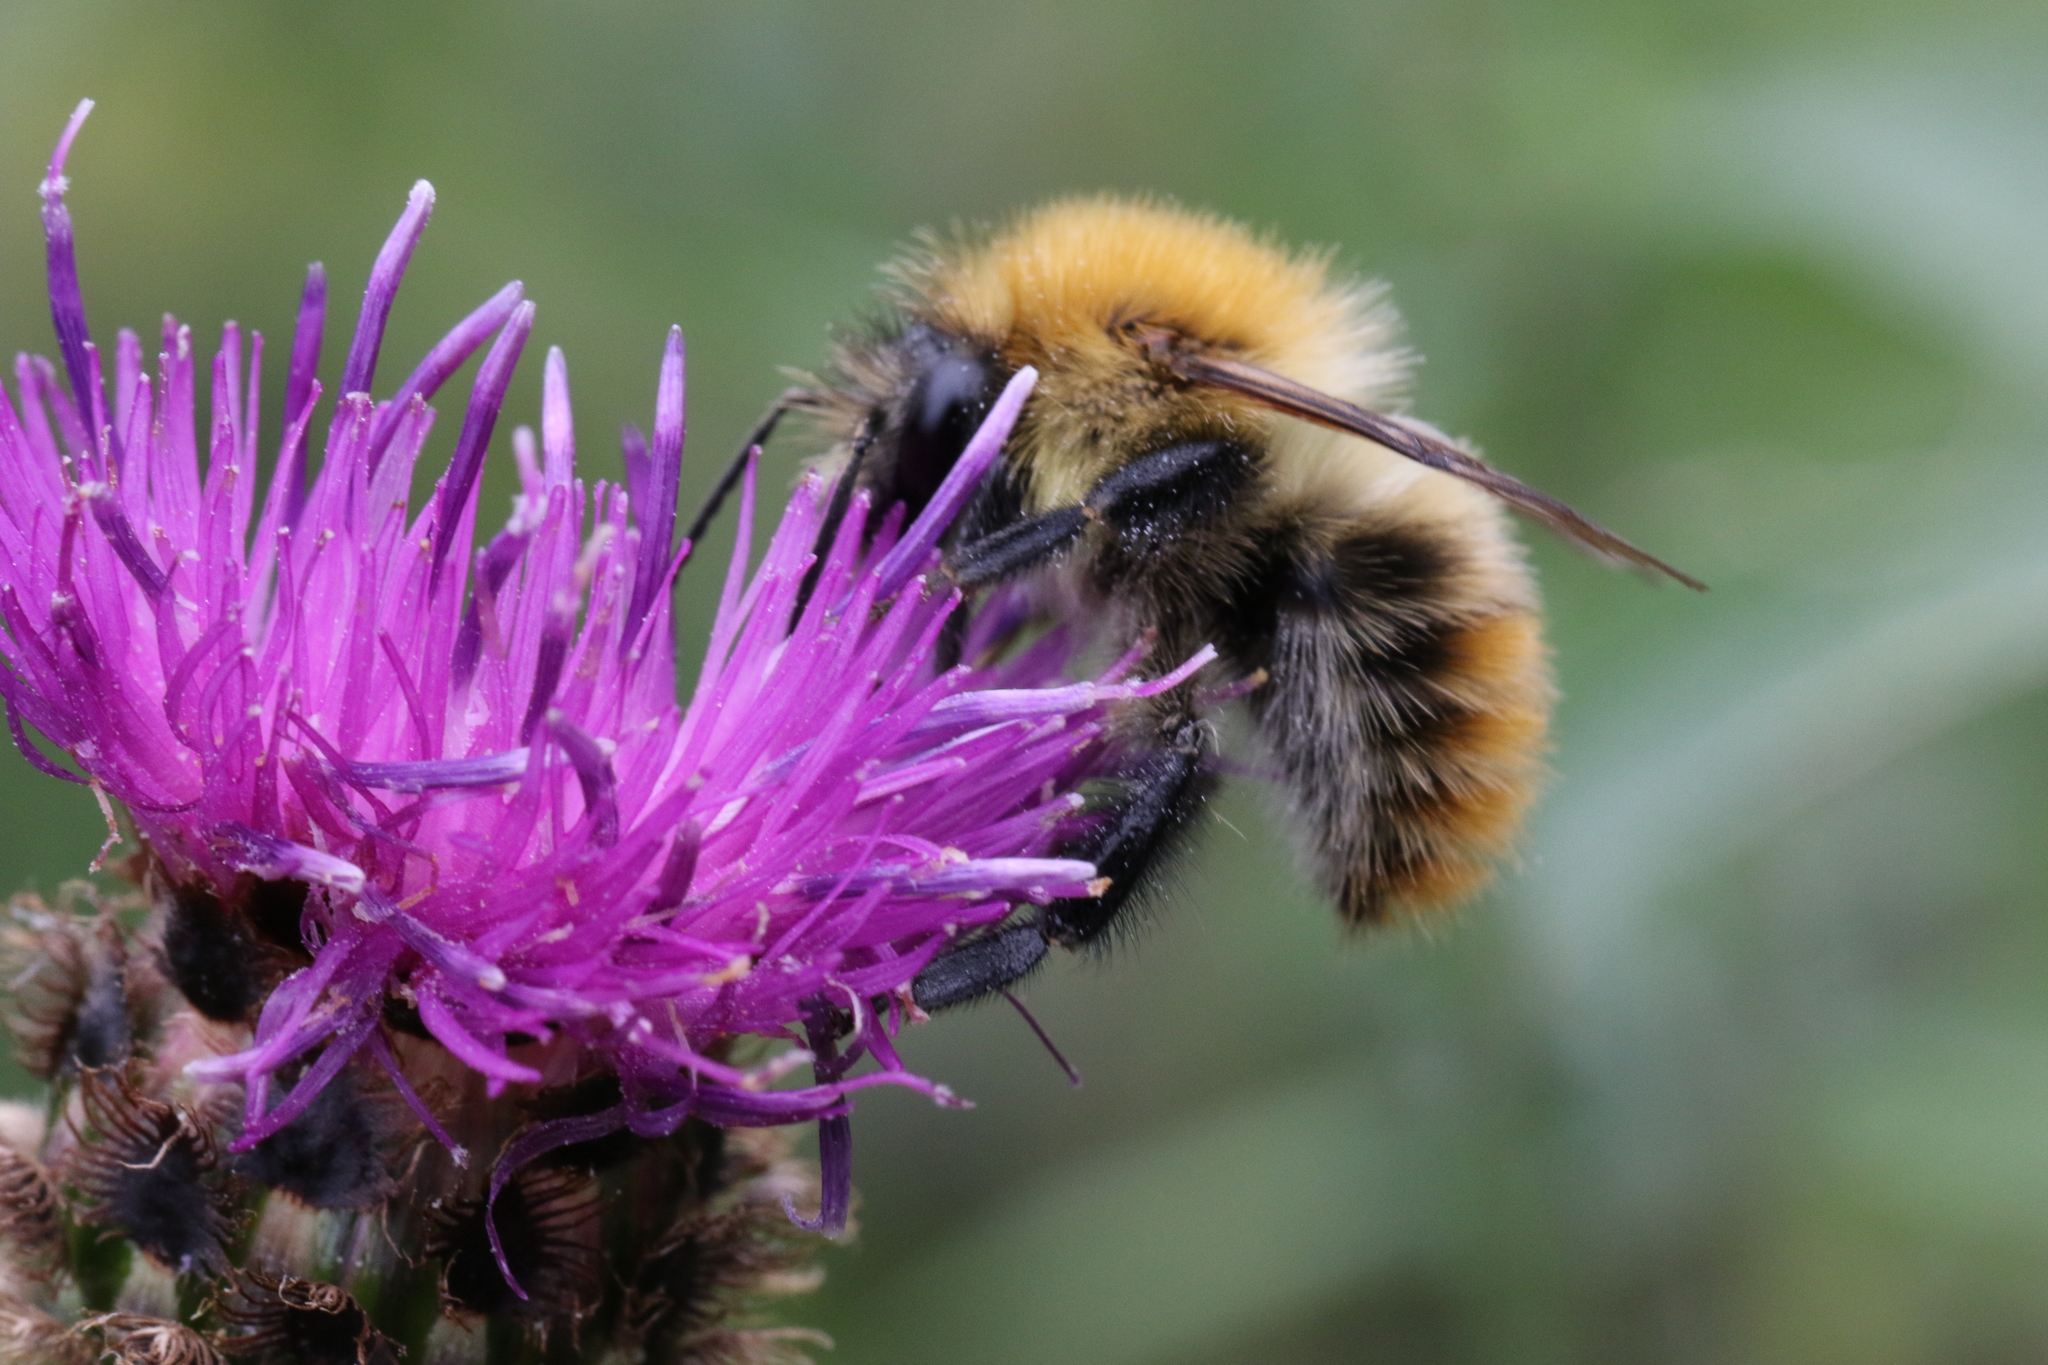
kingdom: Animalia
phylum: Arthropoda
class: Insecta
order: Hymenoptera
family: Apidae
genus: Bombus
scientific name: Bombus pascuorum
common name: Common carder bee
